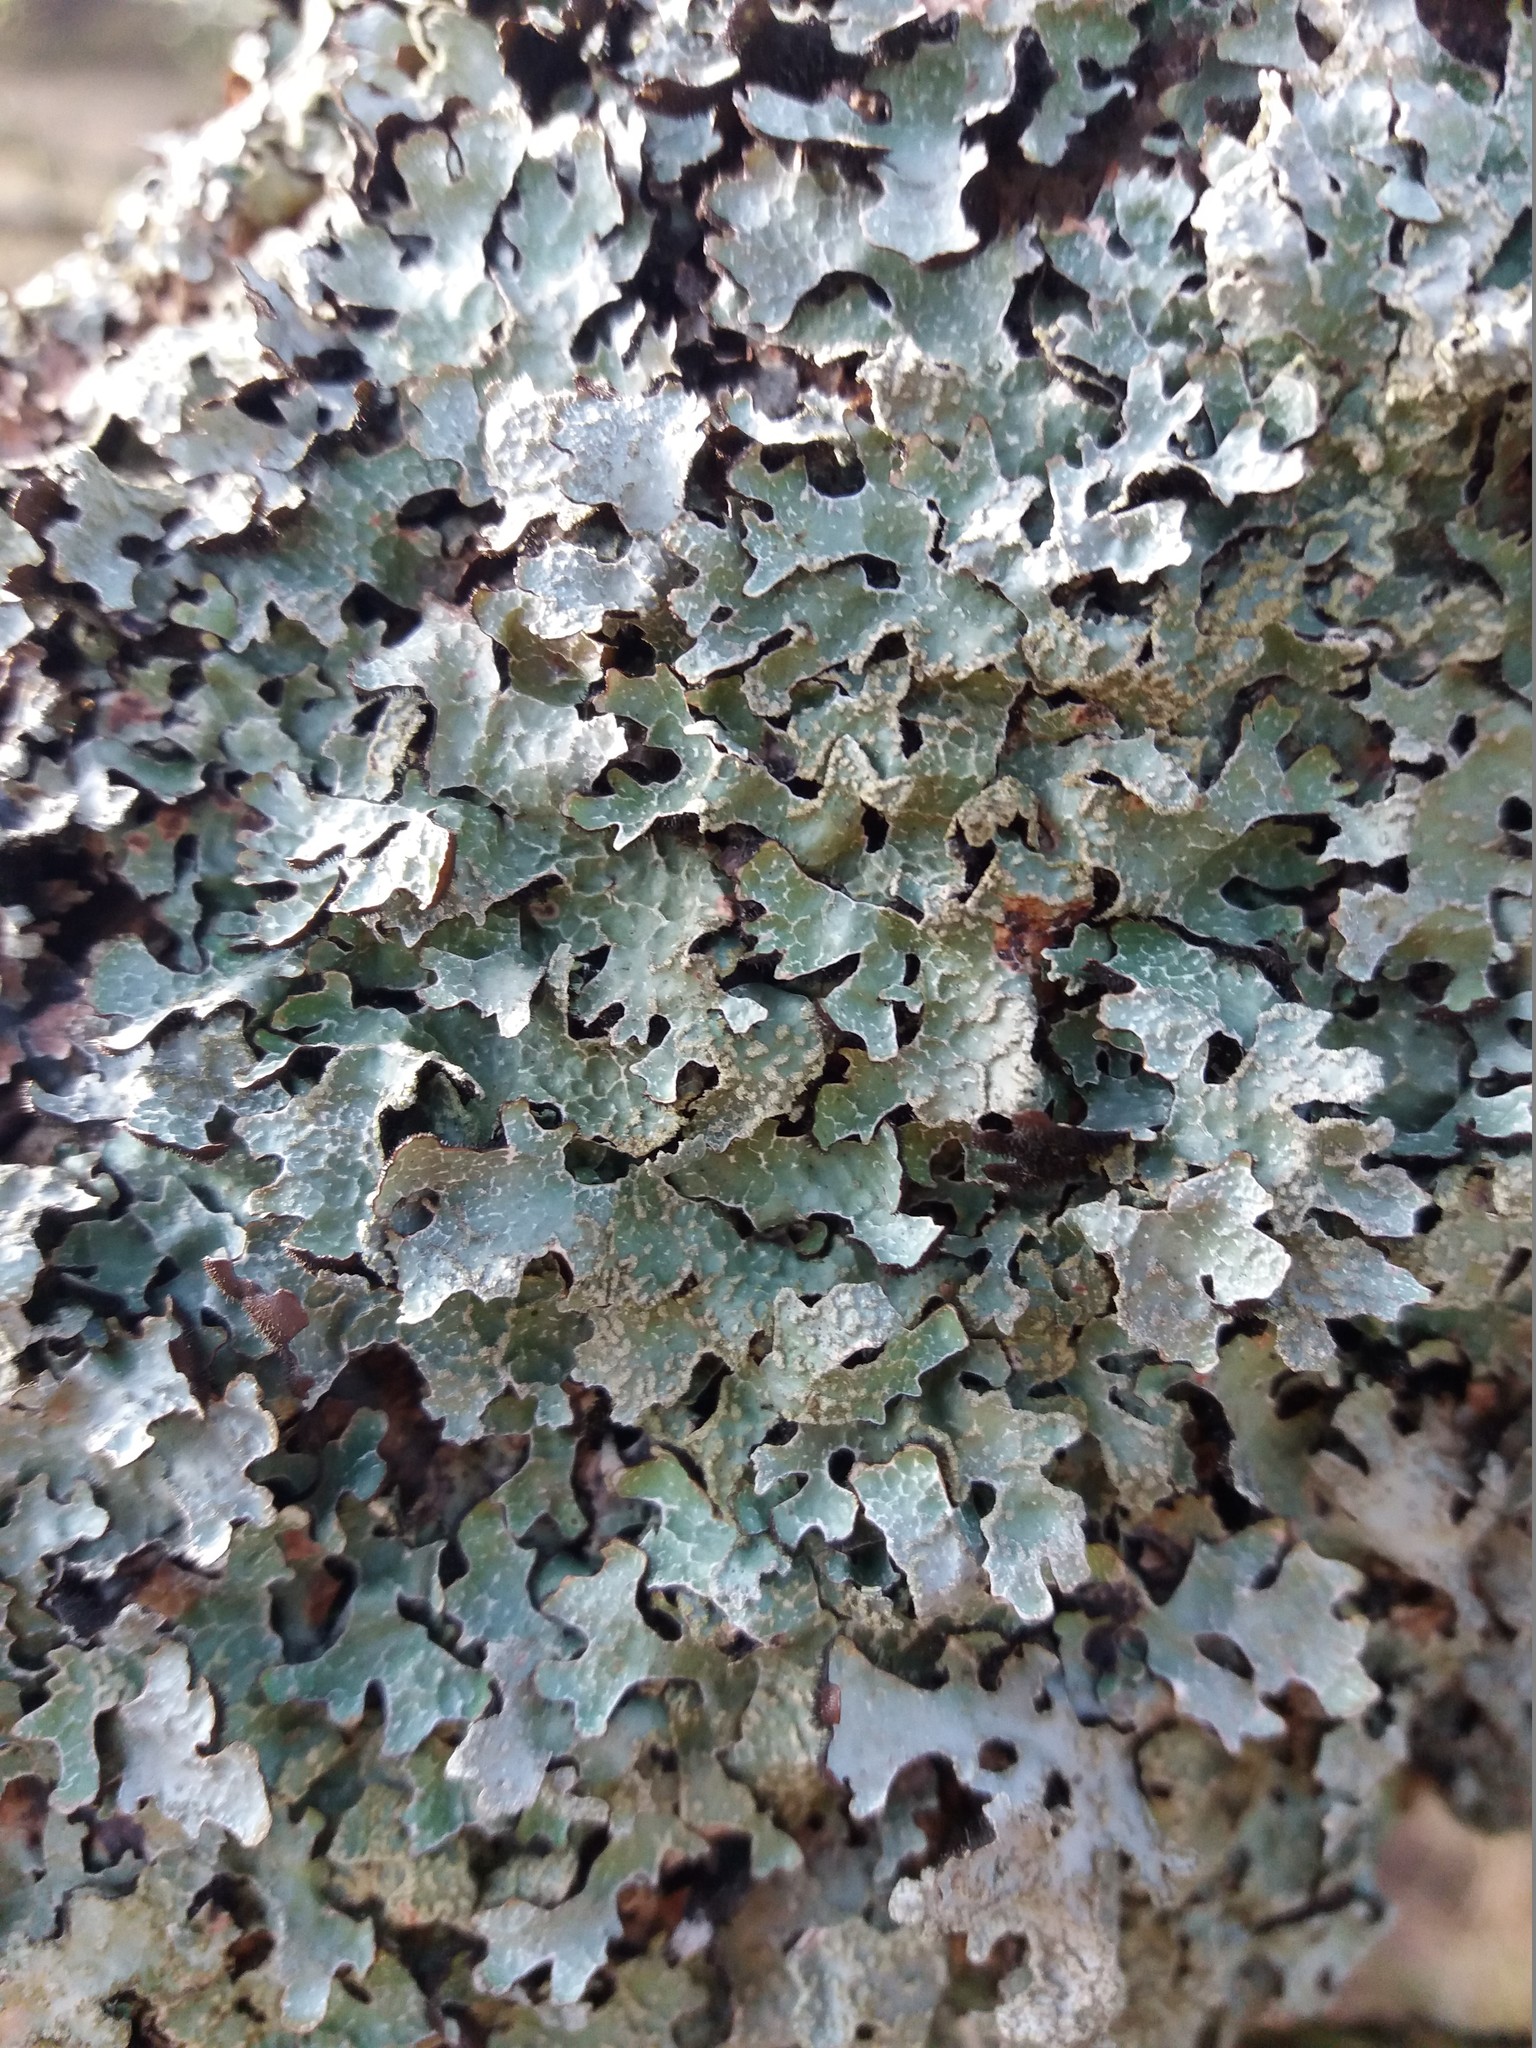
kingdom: Fungi
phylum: Ascomycota
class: Lecanoromycetes
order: Lecanorales
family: Parmeliaceae
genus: Parmelia
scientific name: Parmelia sulcata
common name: Netted shield lichen
